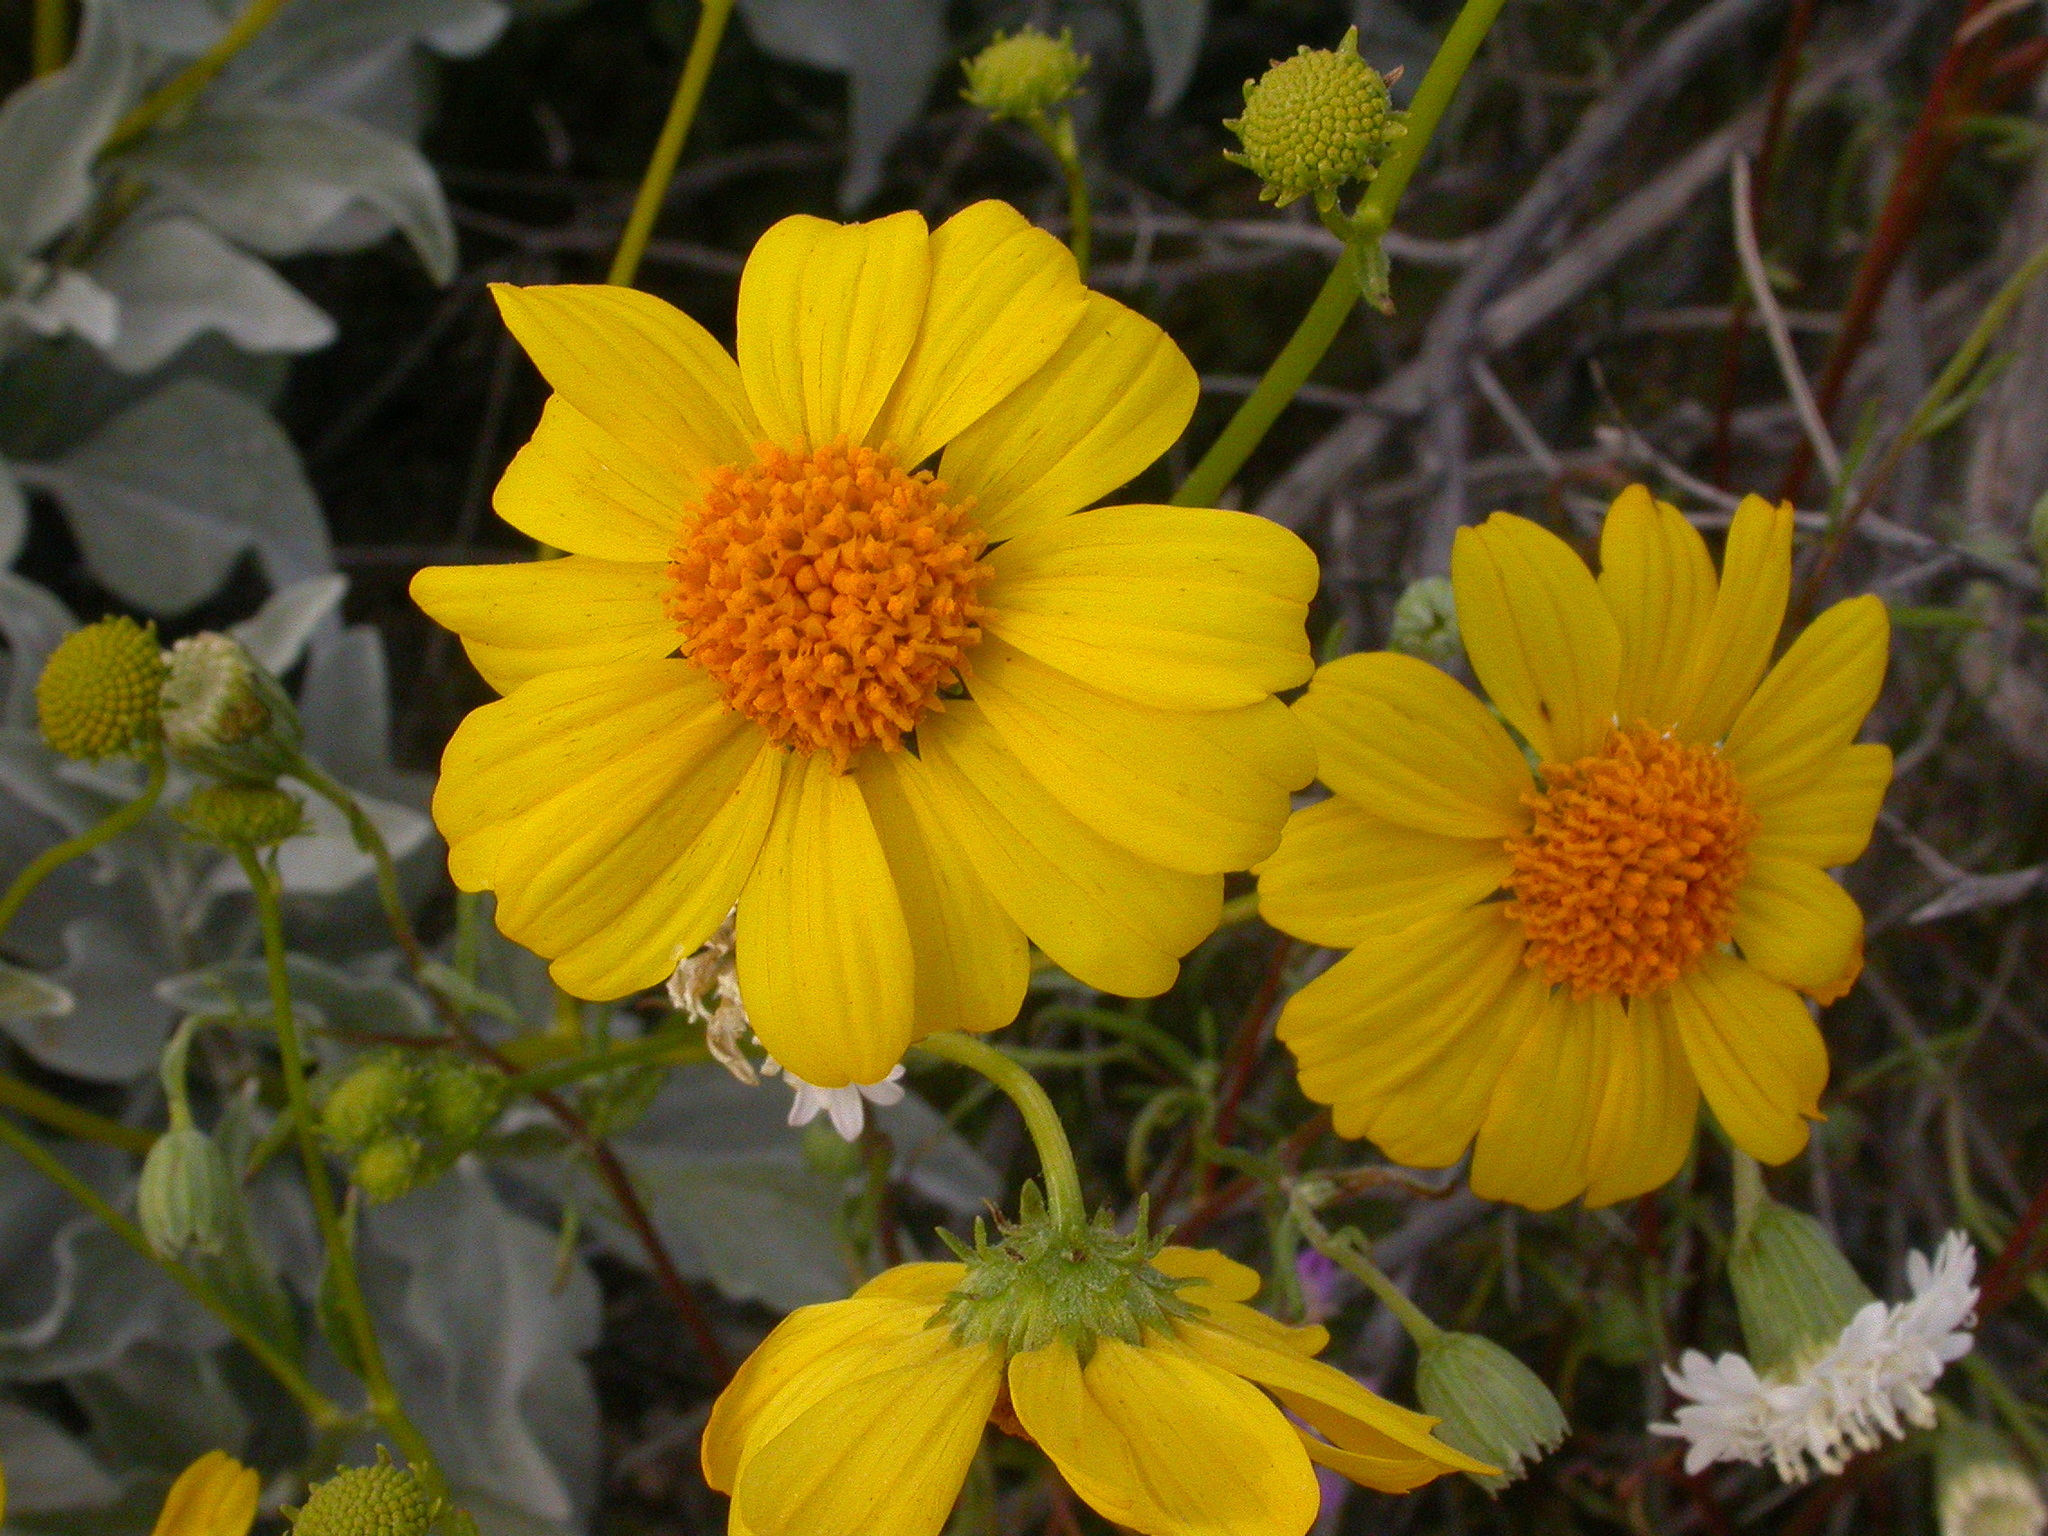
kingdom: Plantae
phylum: Tracheophyta
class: Magnoliopsida
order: Asterales
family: Asteraceae
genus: Encelia
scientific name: Encelia farinosa
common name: Brittlebush
